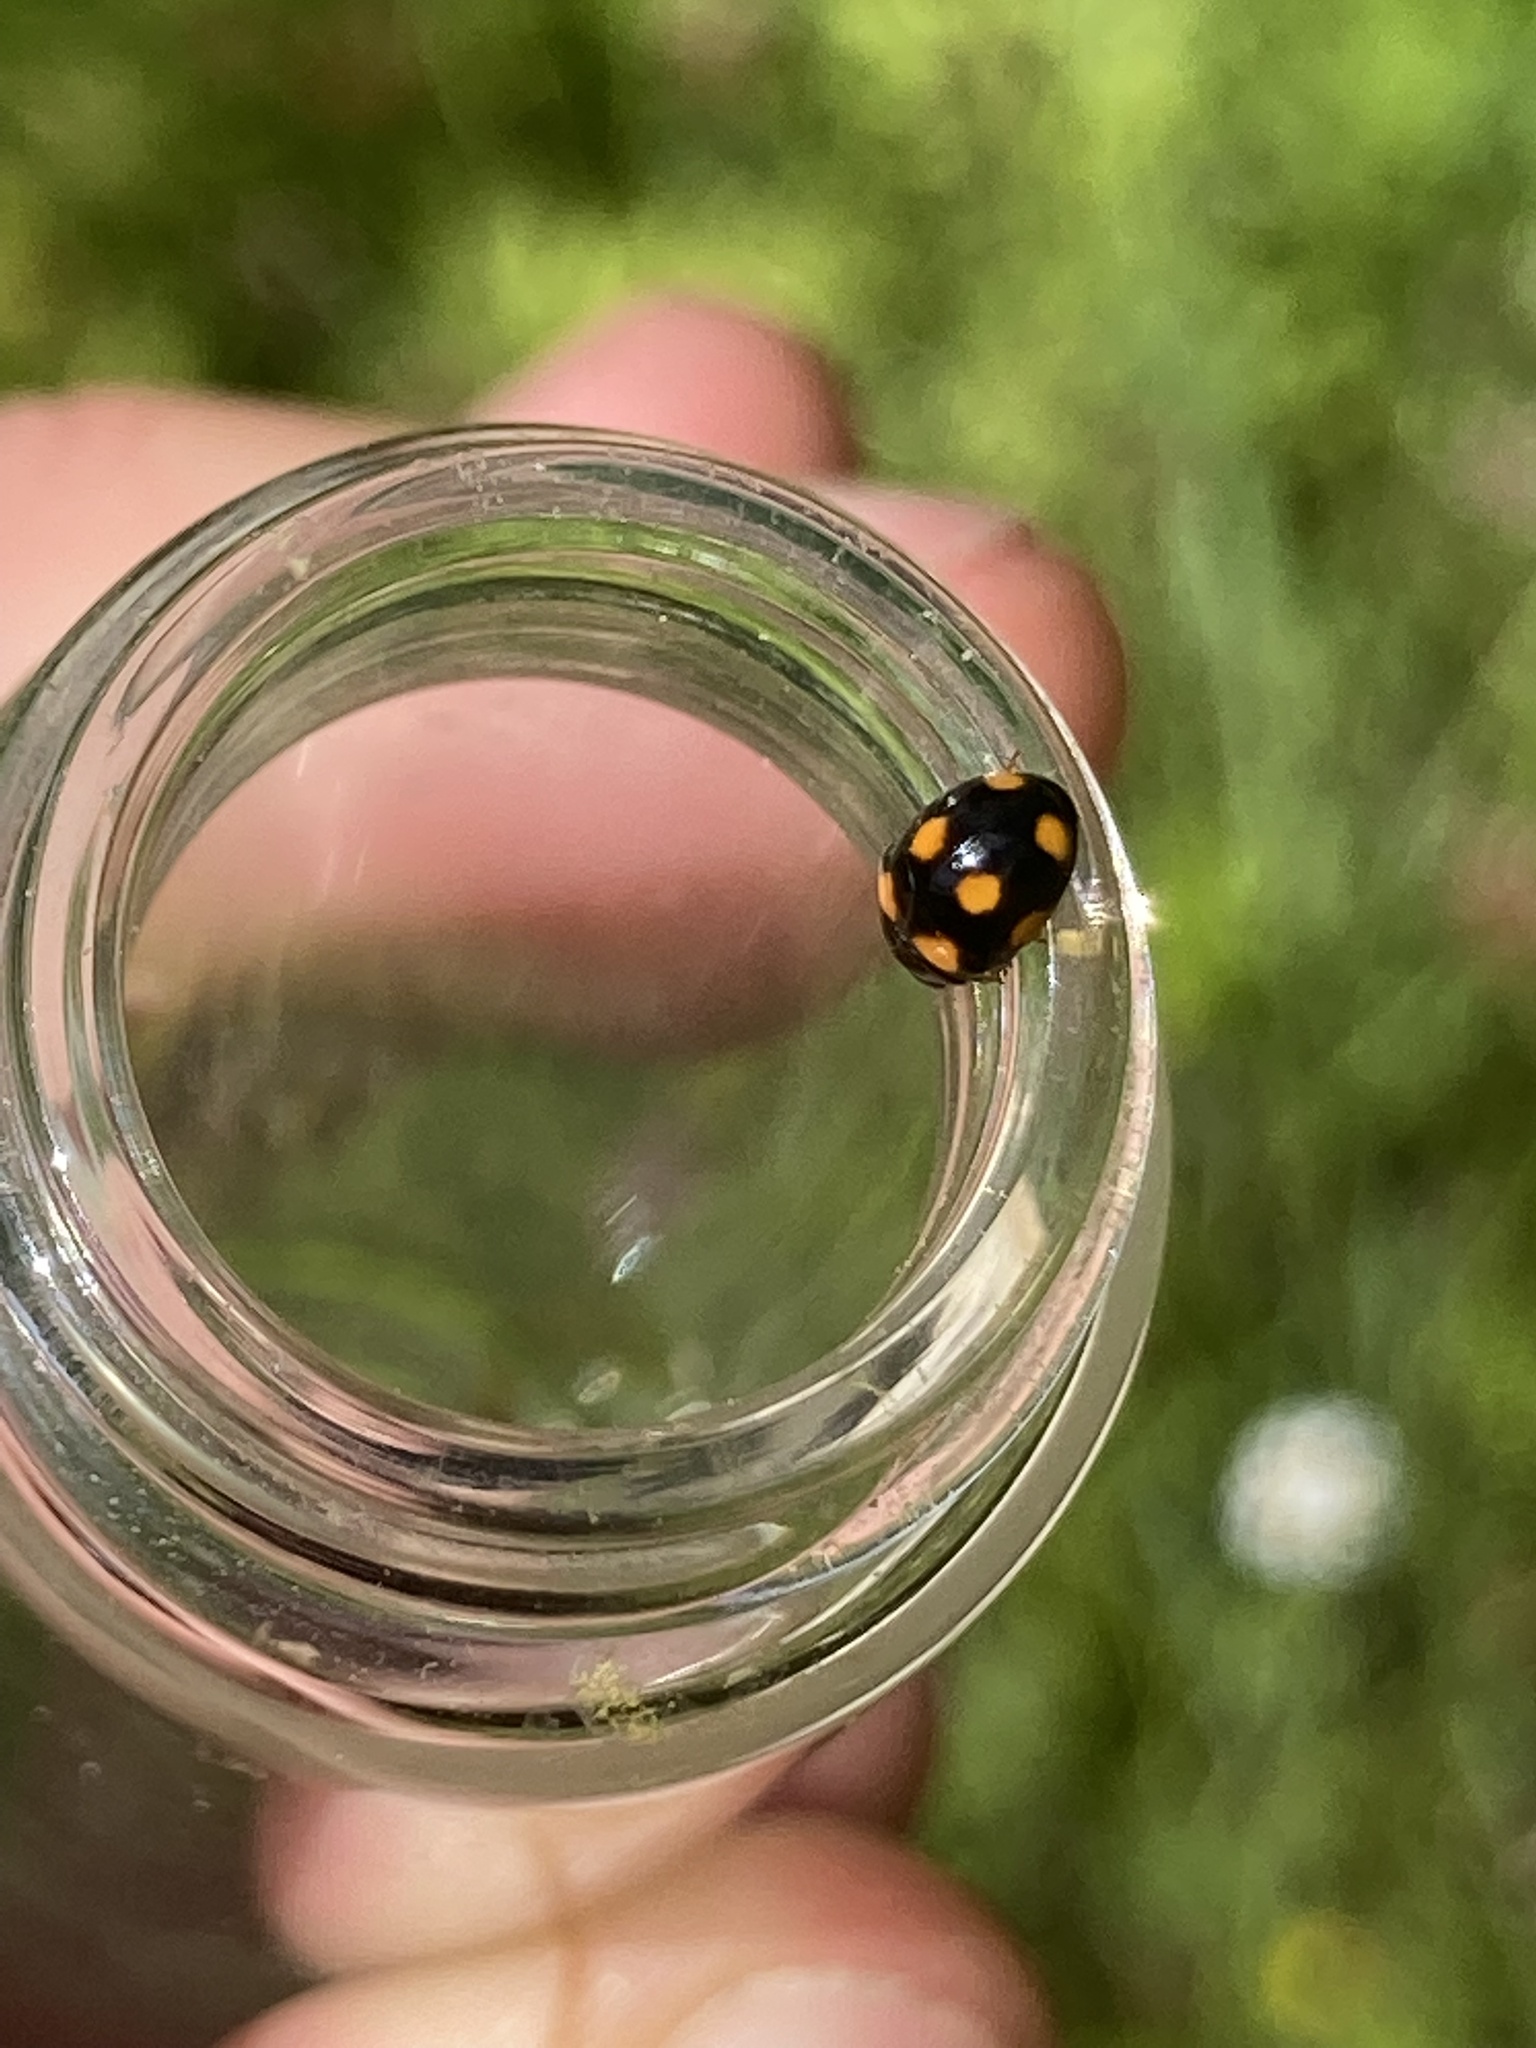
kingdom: Animalia
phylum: Arthropoda
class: Insecta
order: Coleoptera
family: Coccinellidae
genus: Brachiacantha
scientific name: Brachiacantha ursina
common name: Ursine spurleg lady beetle
